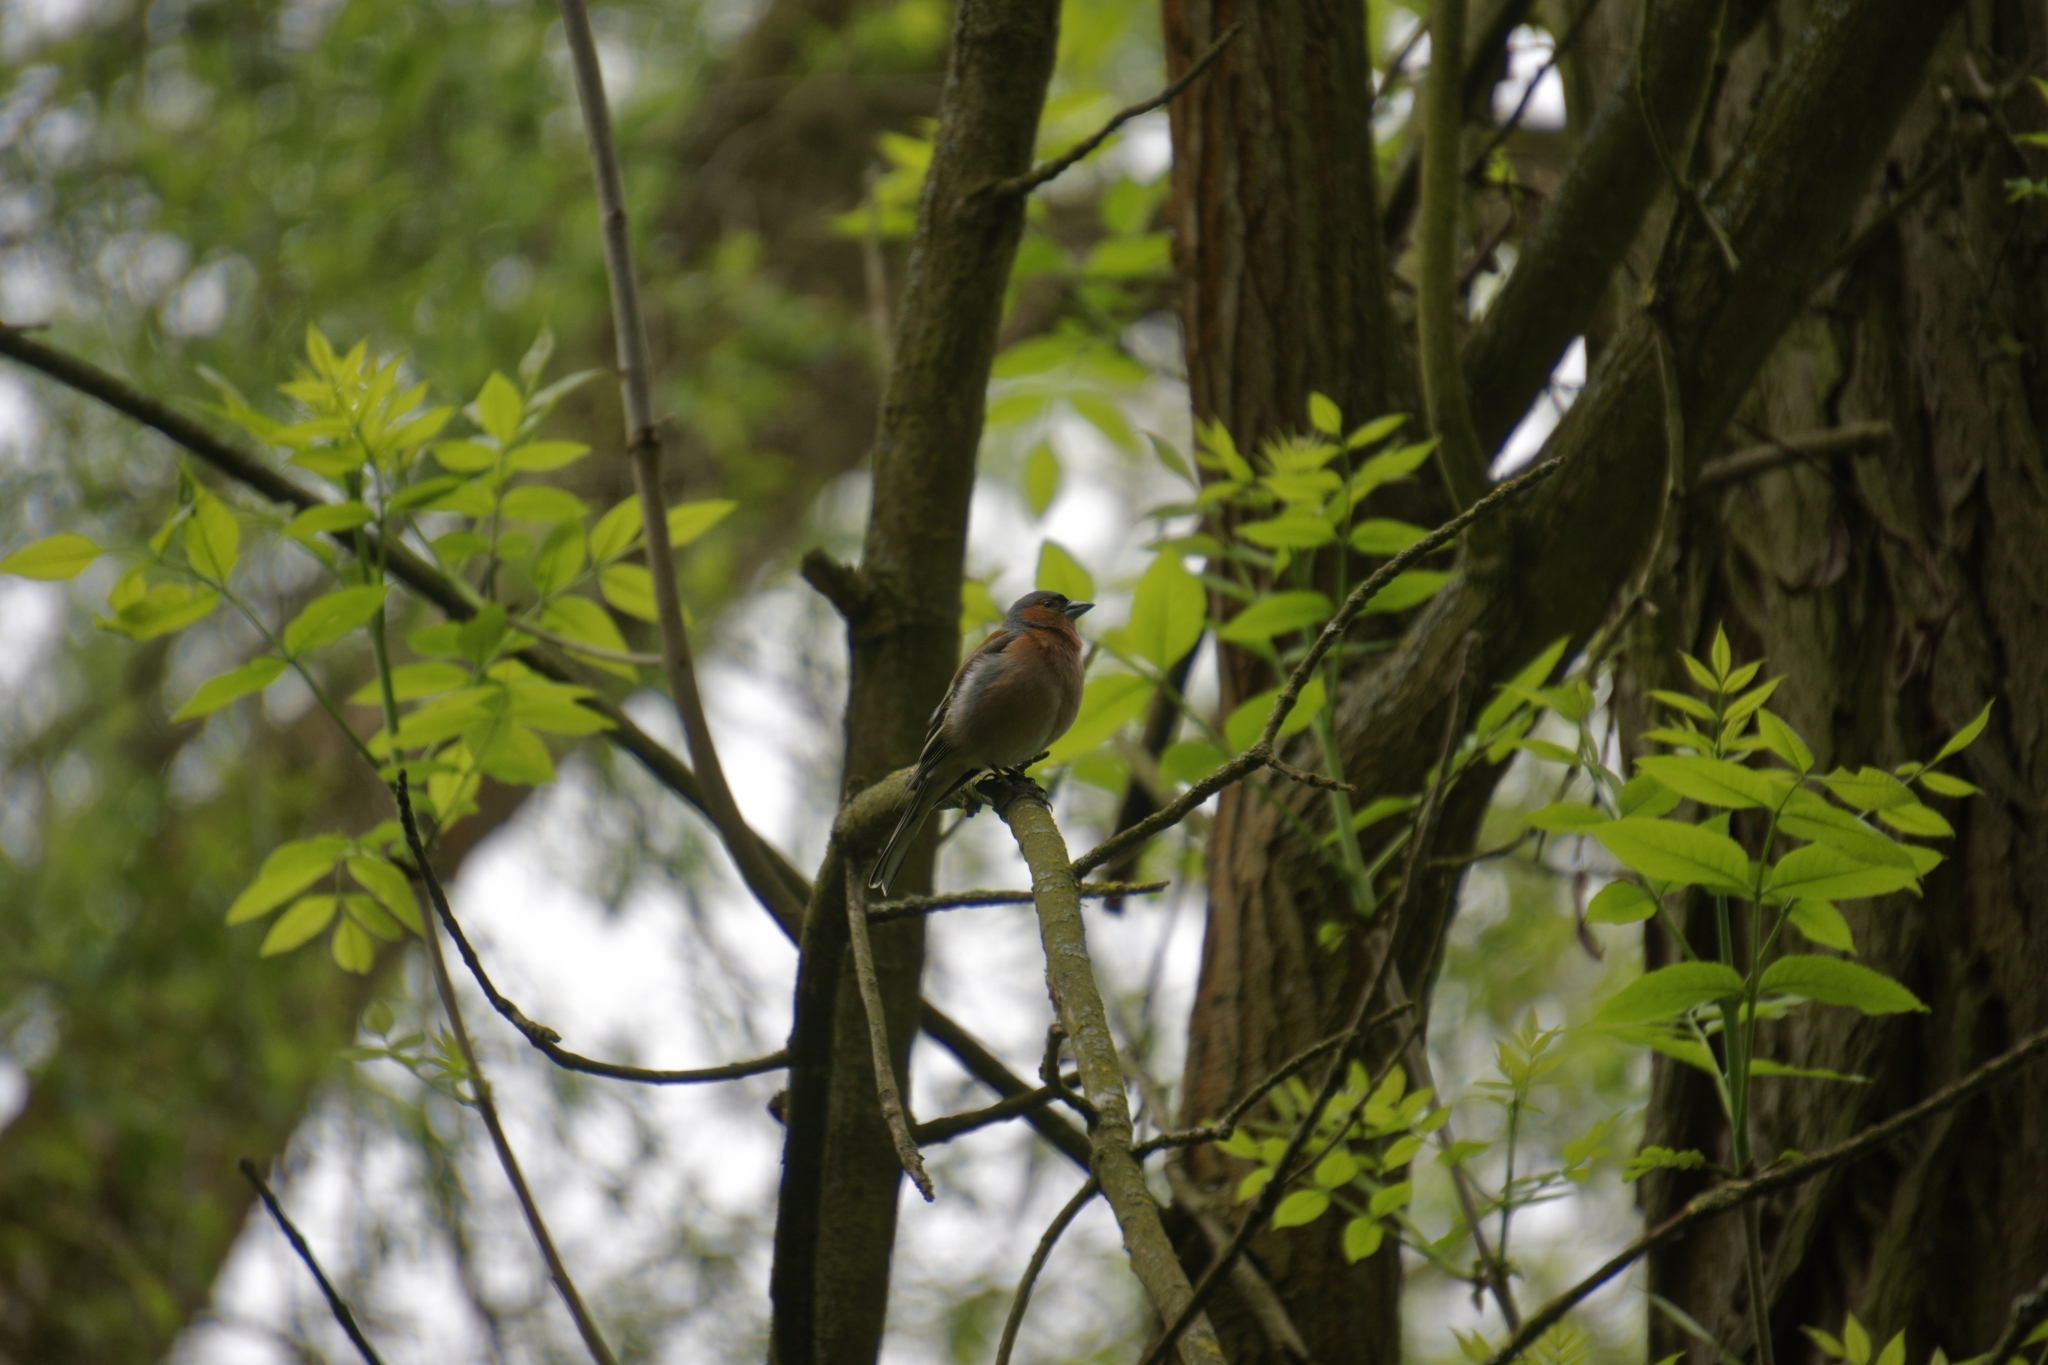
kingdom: Animalia
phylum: Chordata
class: Aves
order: Passeriformes
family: Fringillidae
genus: Fringilla
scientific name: Fringilla coelebs
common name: Common chaffinch
